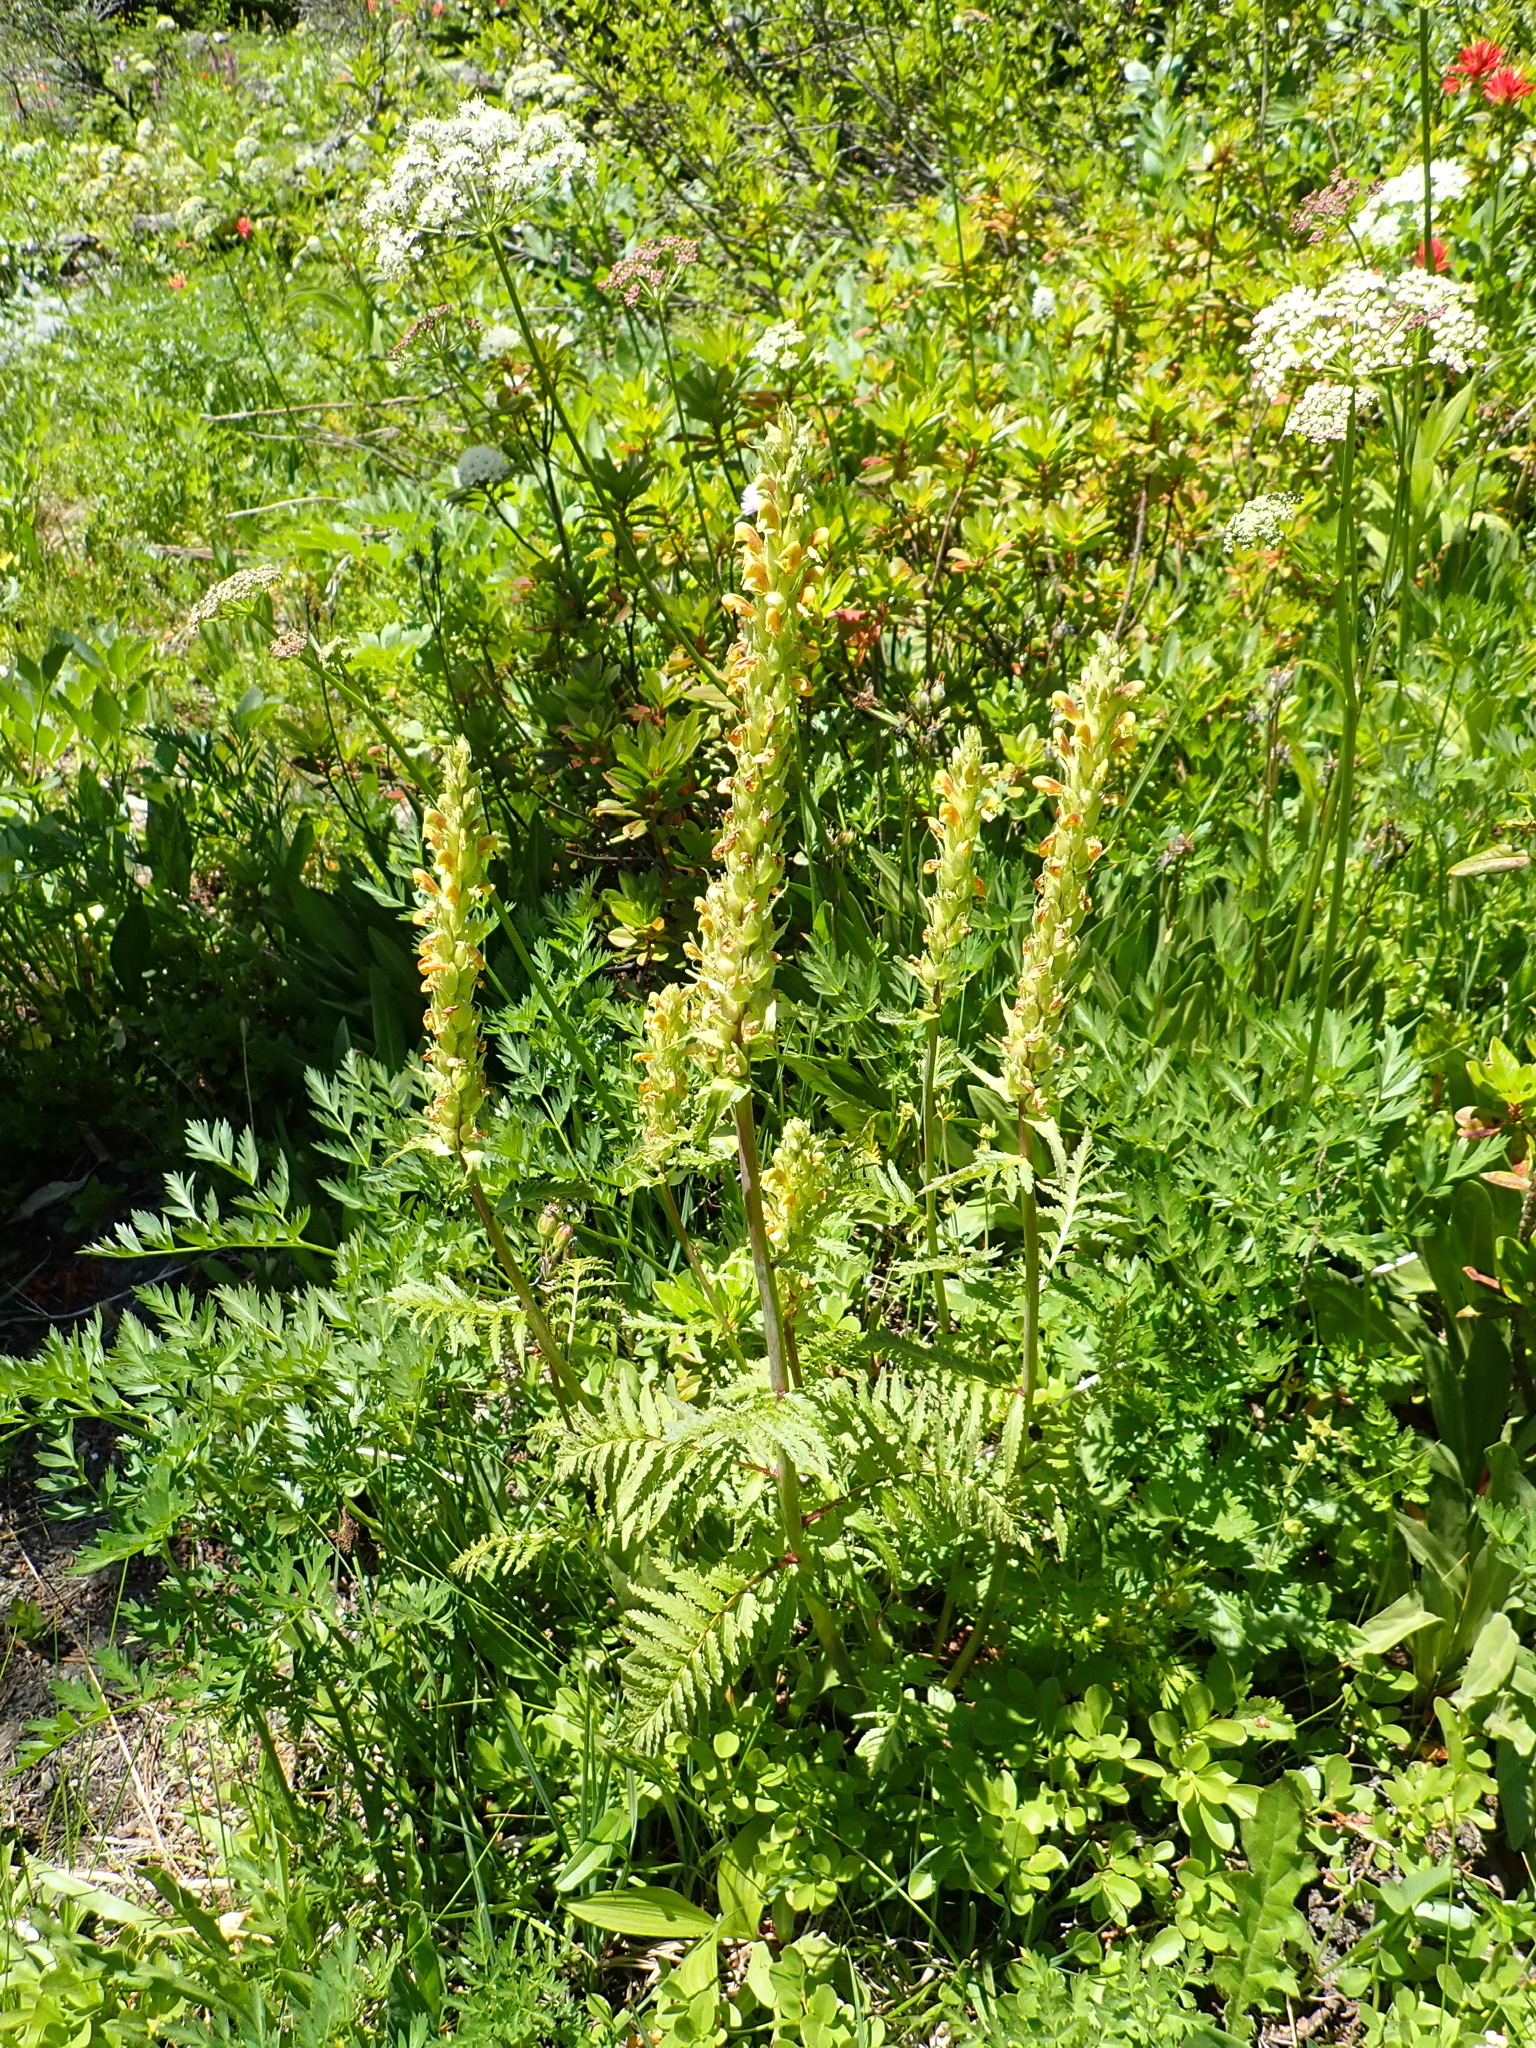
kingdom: Plantae
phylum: Tracheophyta
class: Magnoliopsida
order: Lamiales
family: Orobanchaceae
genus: Pedicularis
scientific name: Pedicularis bracteosa
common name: Bracted lousewort
